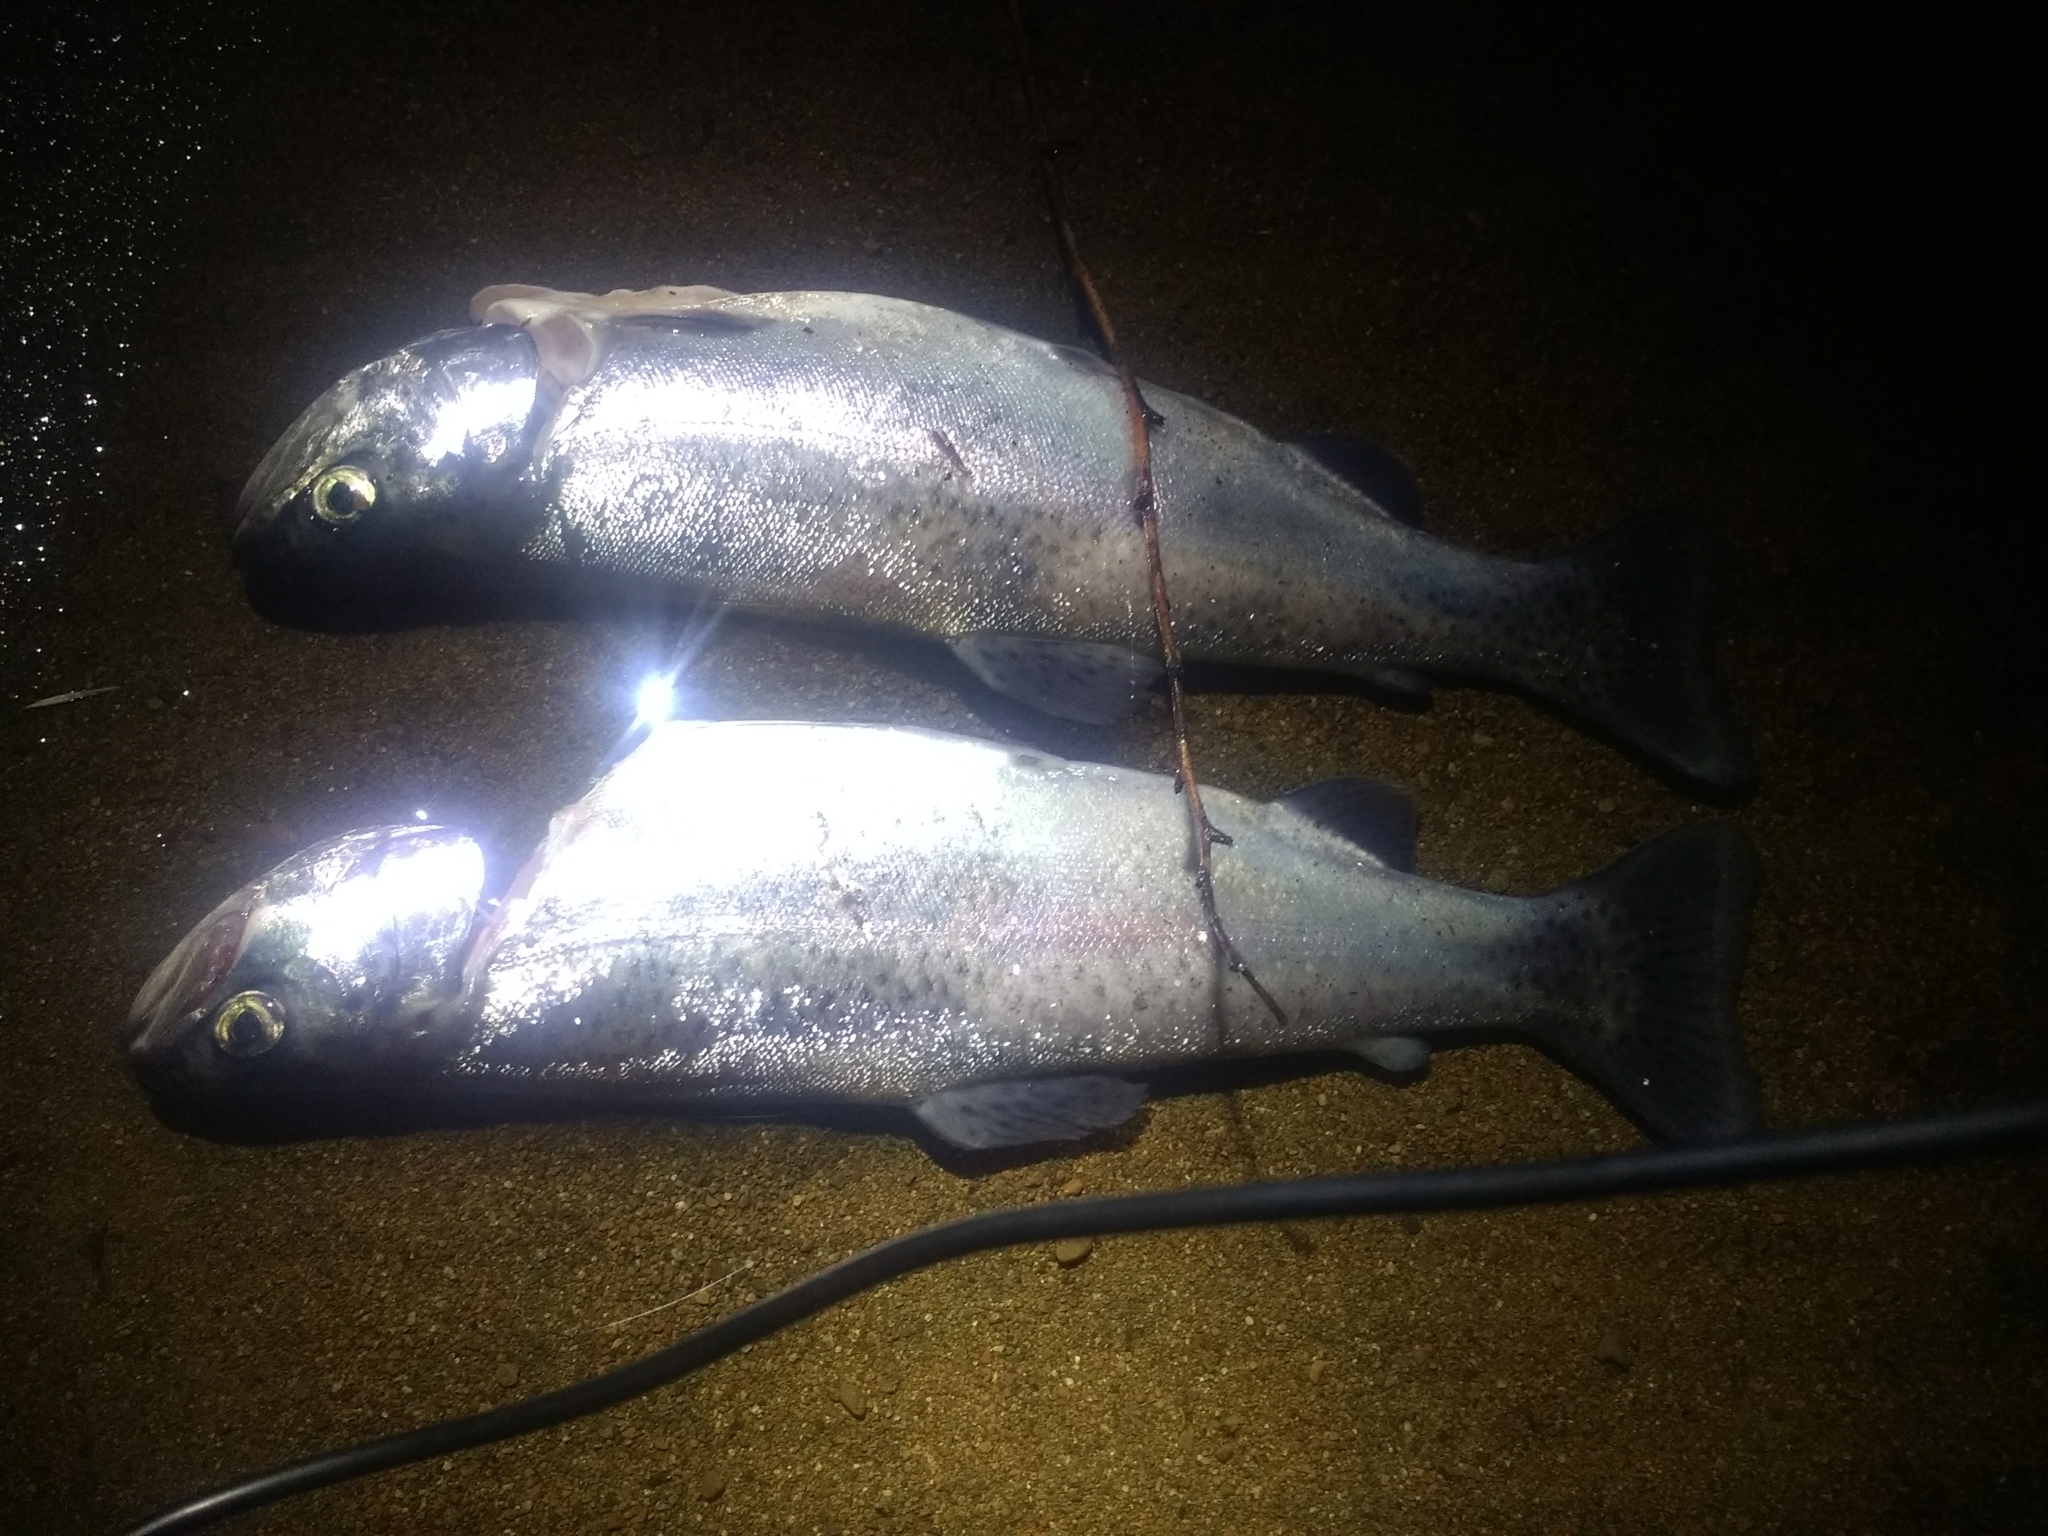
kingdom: Animalia
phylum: Chordata
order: Salmoniformes
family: Salmonidae
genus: Oncorhynchus
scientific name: Oncorhynchus mykiss
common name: Rainbow trout
